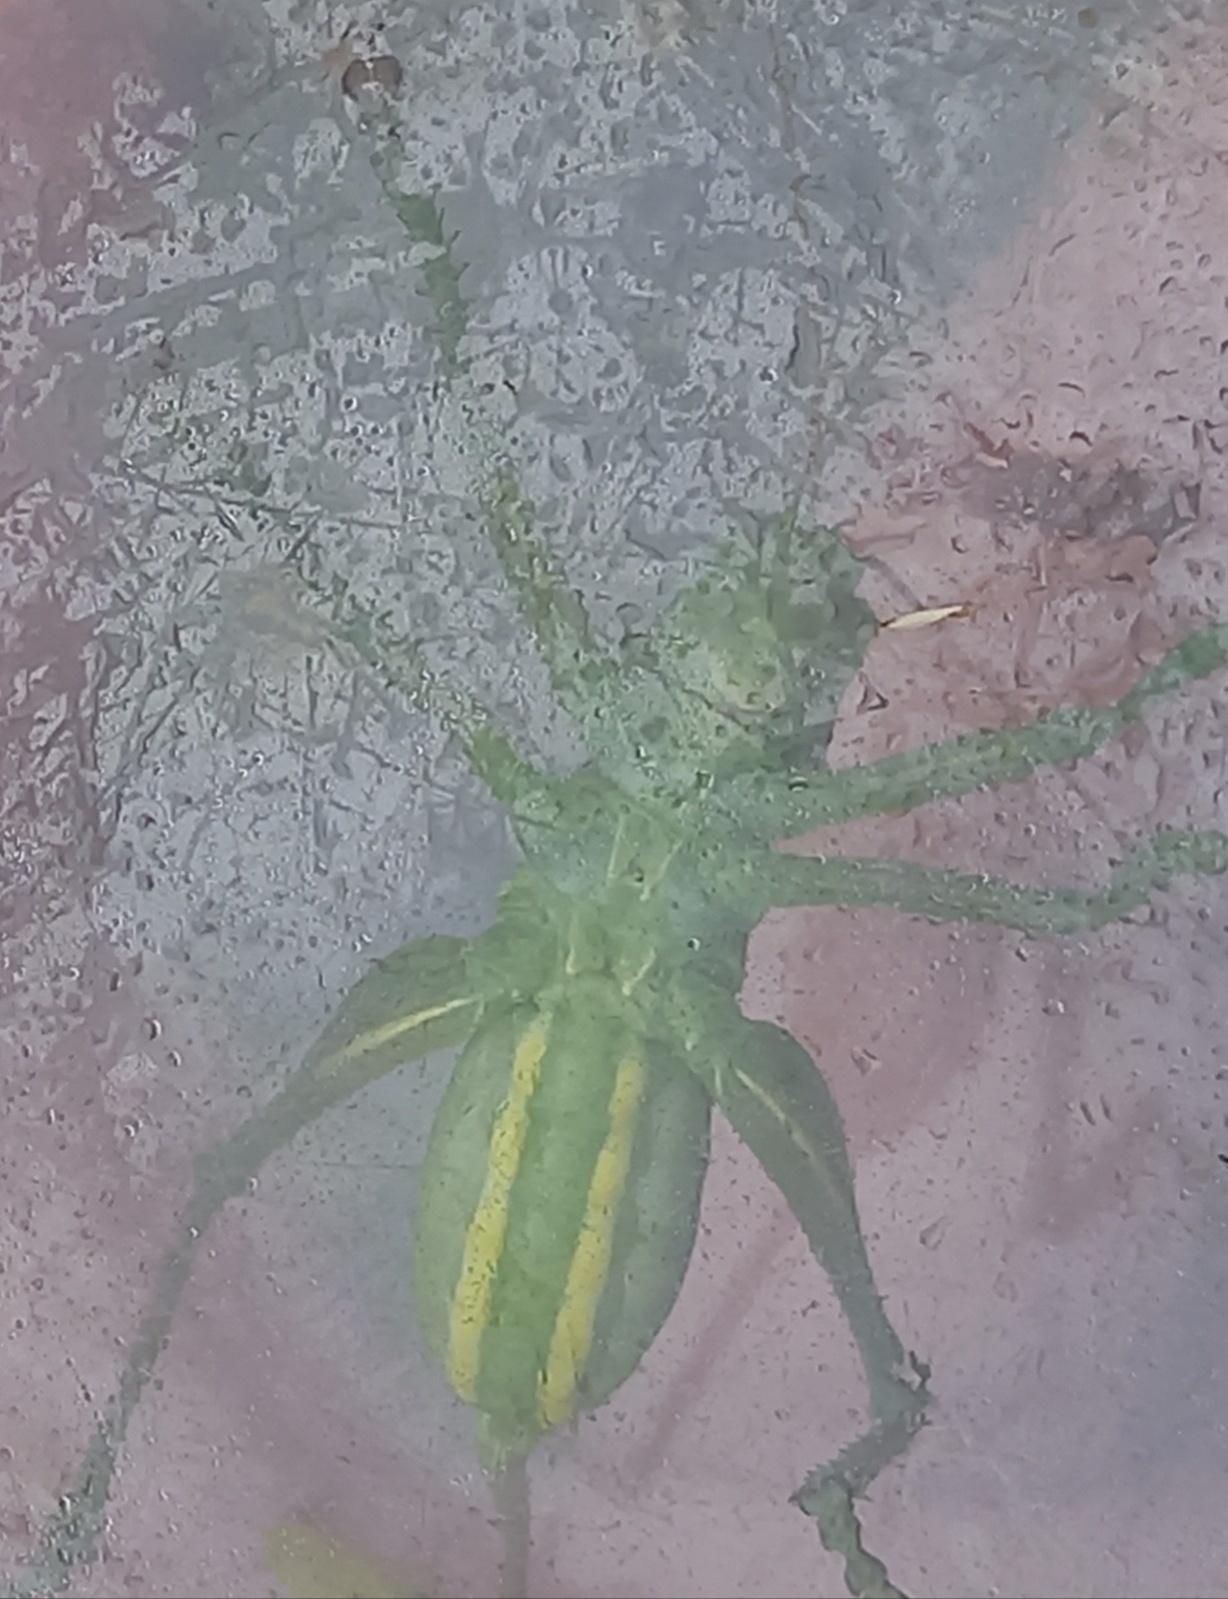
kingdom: Animalia
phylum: Arthropoda
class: Insecta
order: Orthoptera
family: Tettigoniidae
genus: Tettigonia
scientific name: Tettigonia viridissima
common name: Great green bush-cricket
